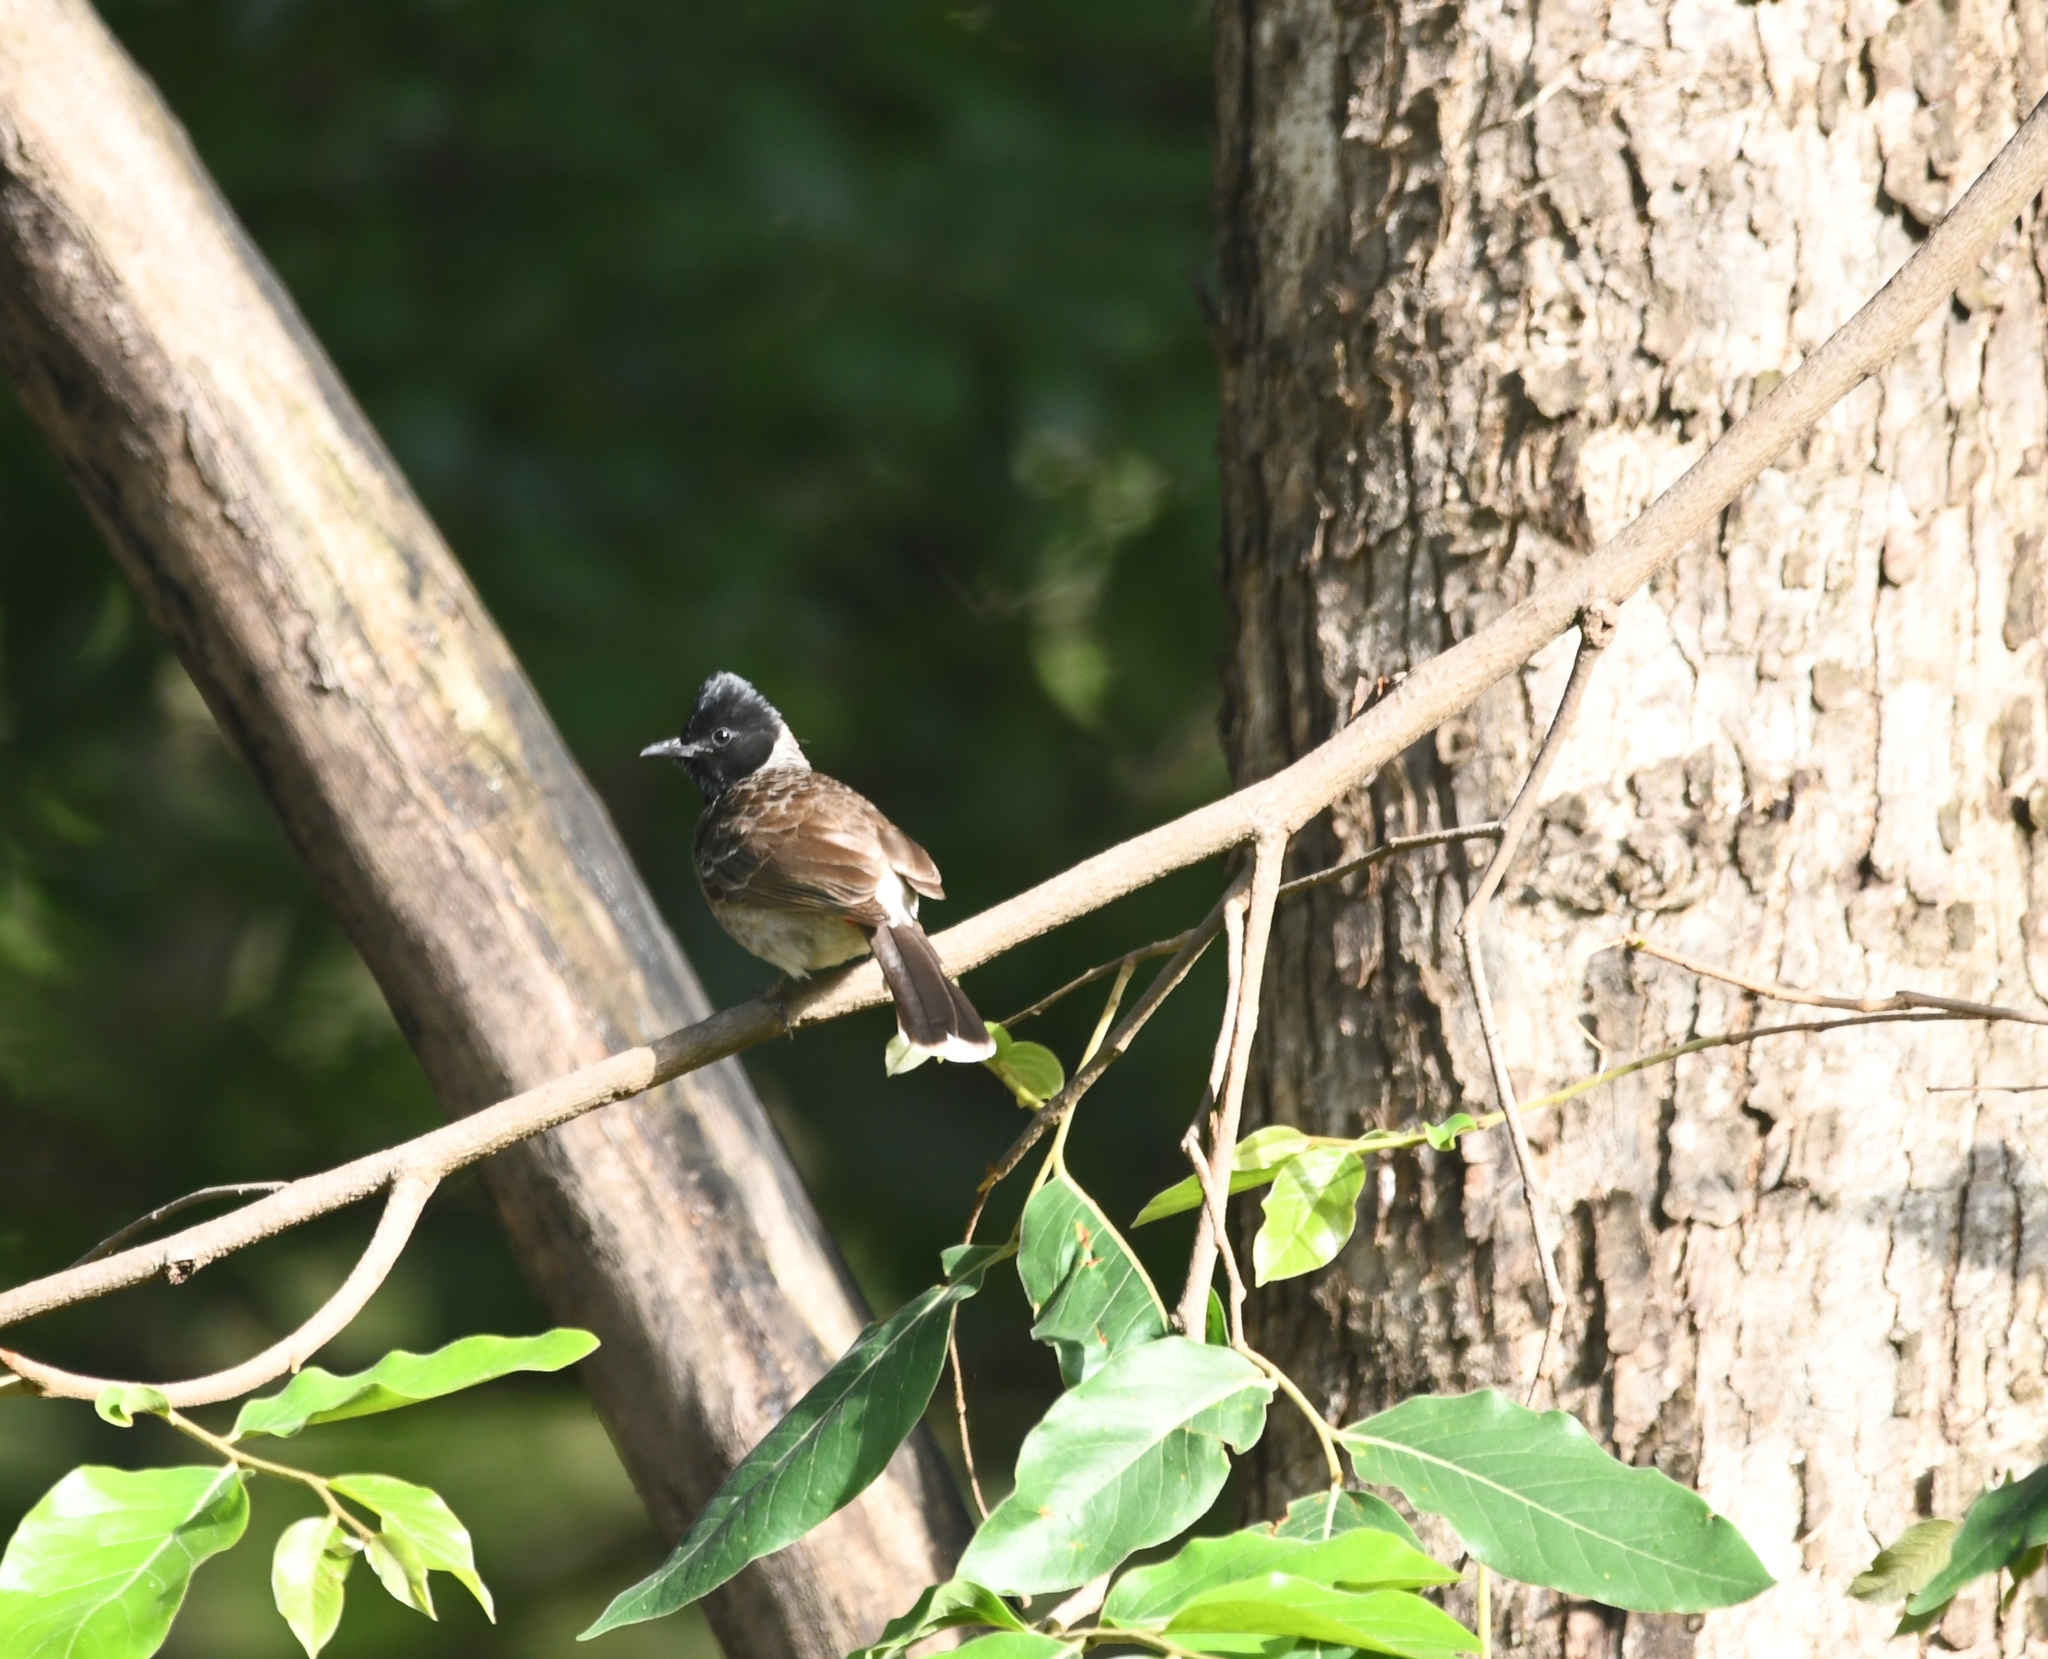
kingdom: Animalia
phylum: Chordata
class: Aves
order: Passeriformes
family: Pycnonotidae
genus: Pycnonotus
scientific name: Pycnonotus cafer
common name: Red-vented bulbul
